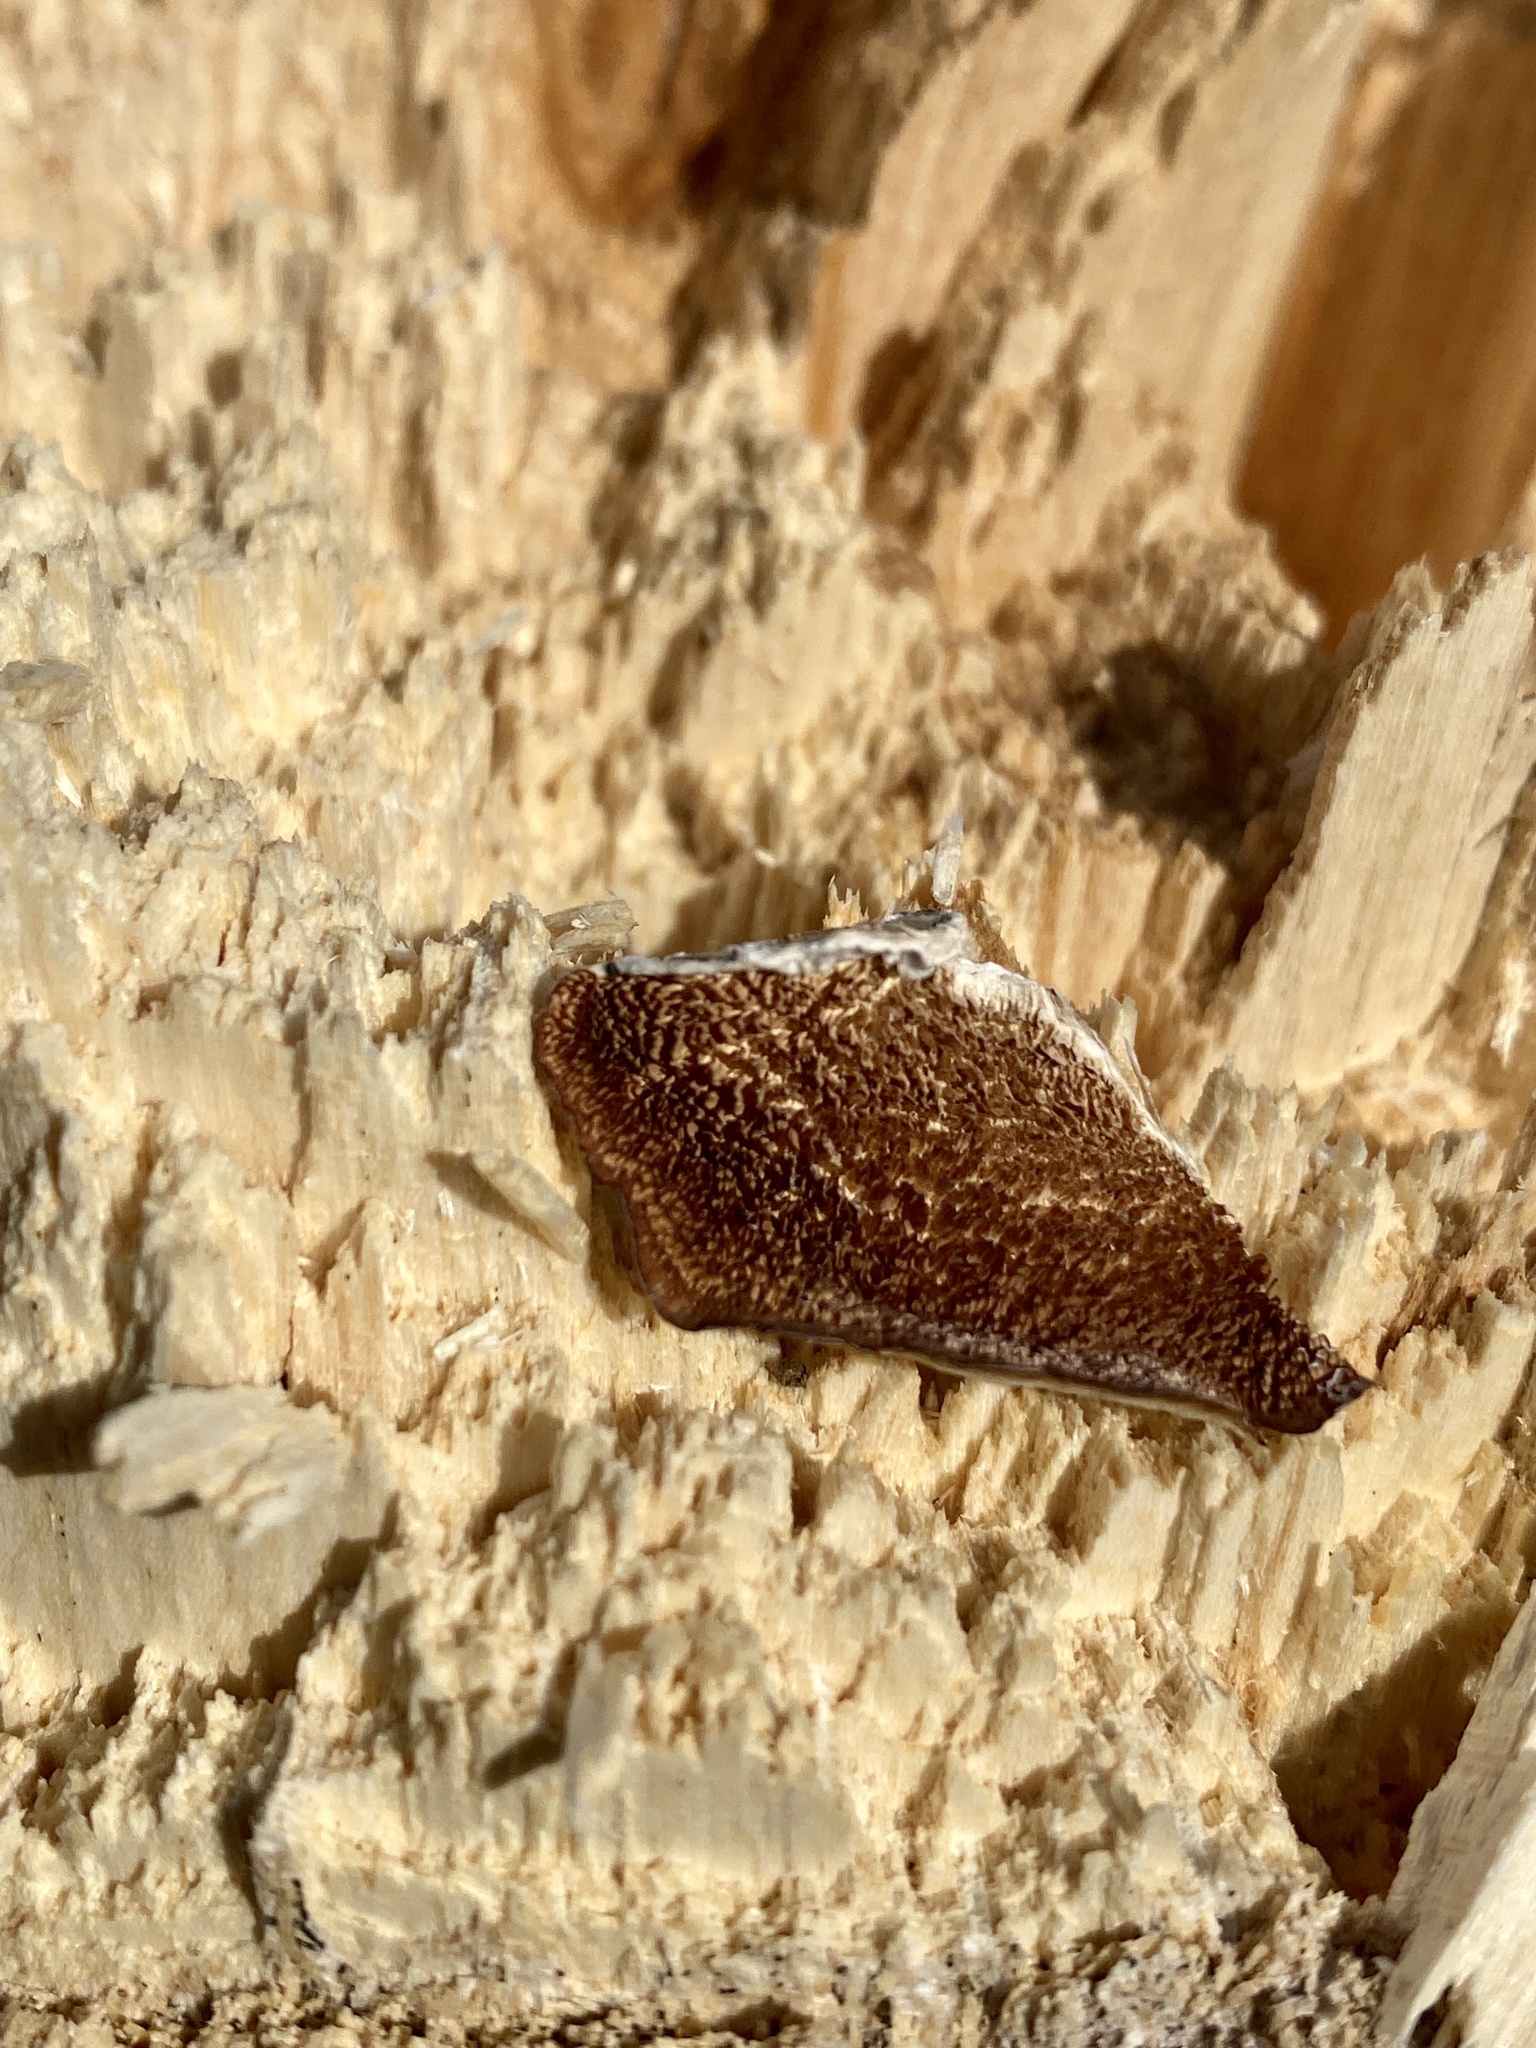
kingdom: Fungi
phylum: Basidiomycota
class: Agaricomycetes
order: Hymenochaetales
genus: Trichaptum
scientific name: Trichaptum biforme
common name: Violet-toothed polypore
